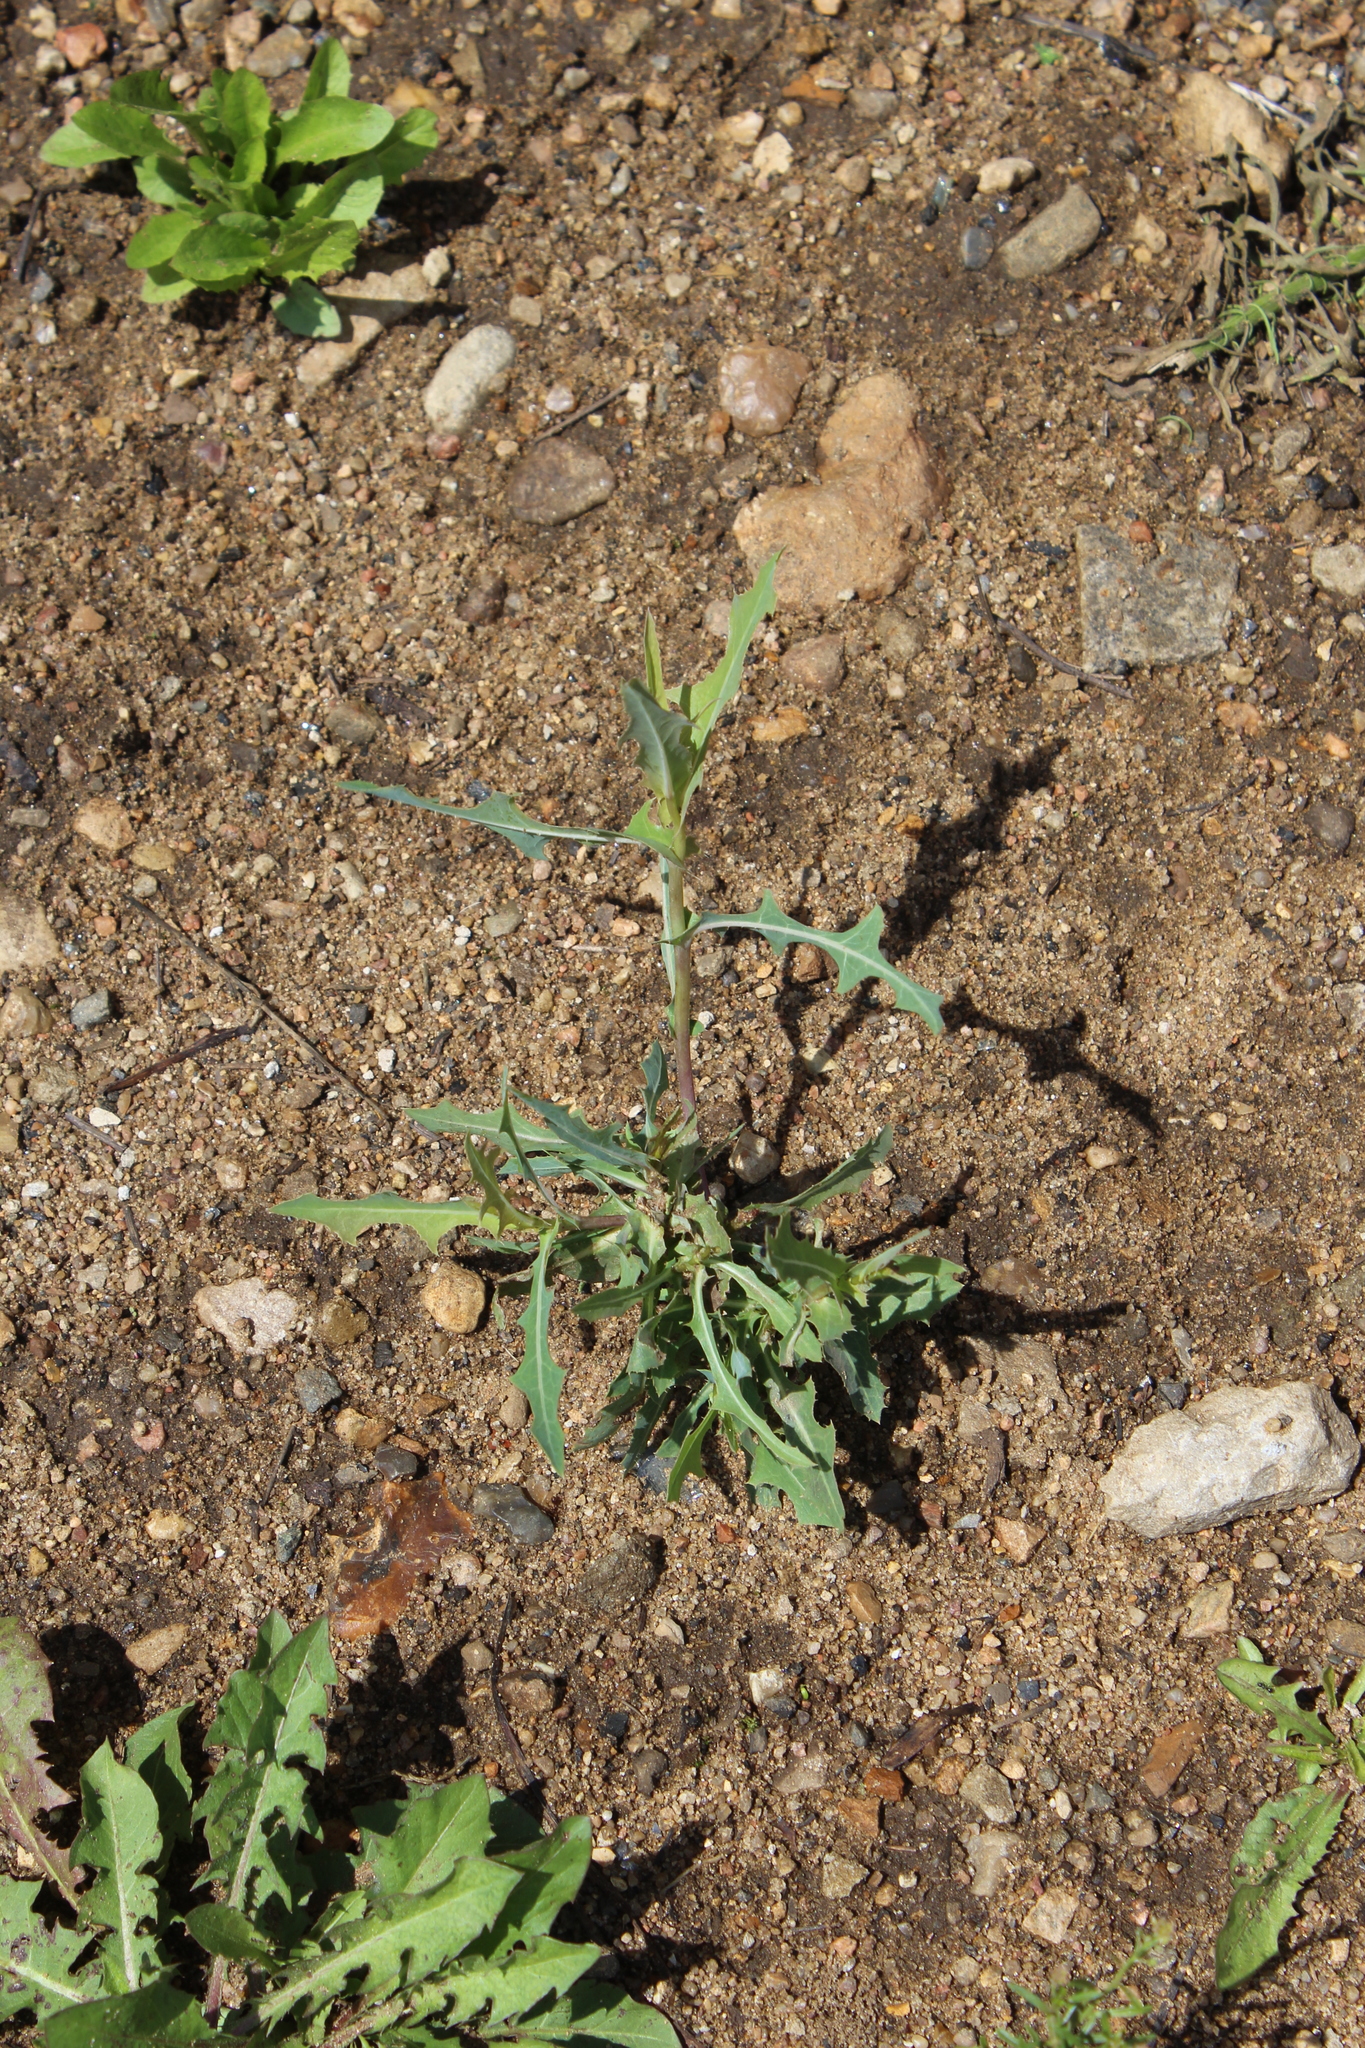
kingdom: Plantae
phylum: Tracheophyta
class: Magnoliopsida
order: Asterales
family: Asteraceae
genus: Lactuca
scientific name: Lactuca serriola
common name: Prickly lettuce
